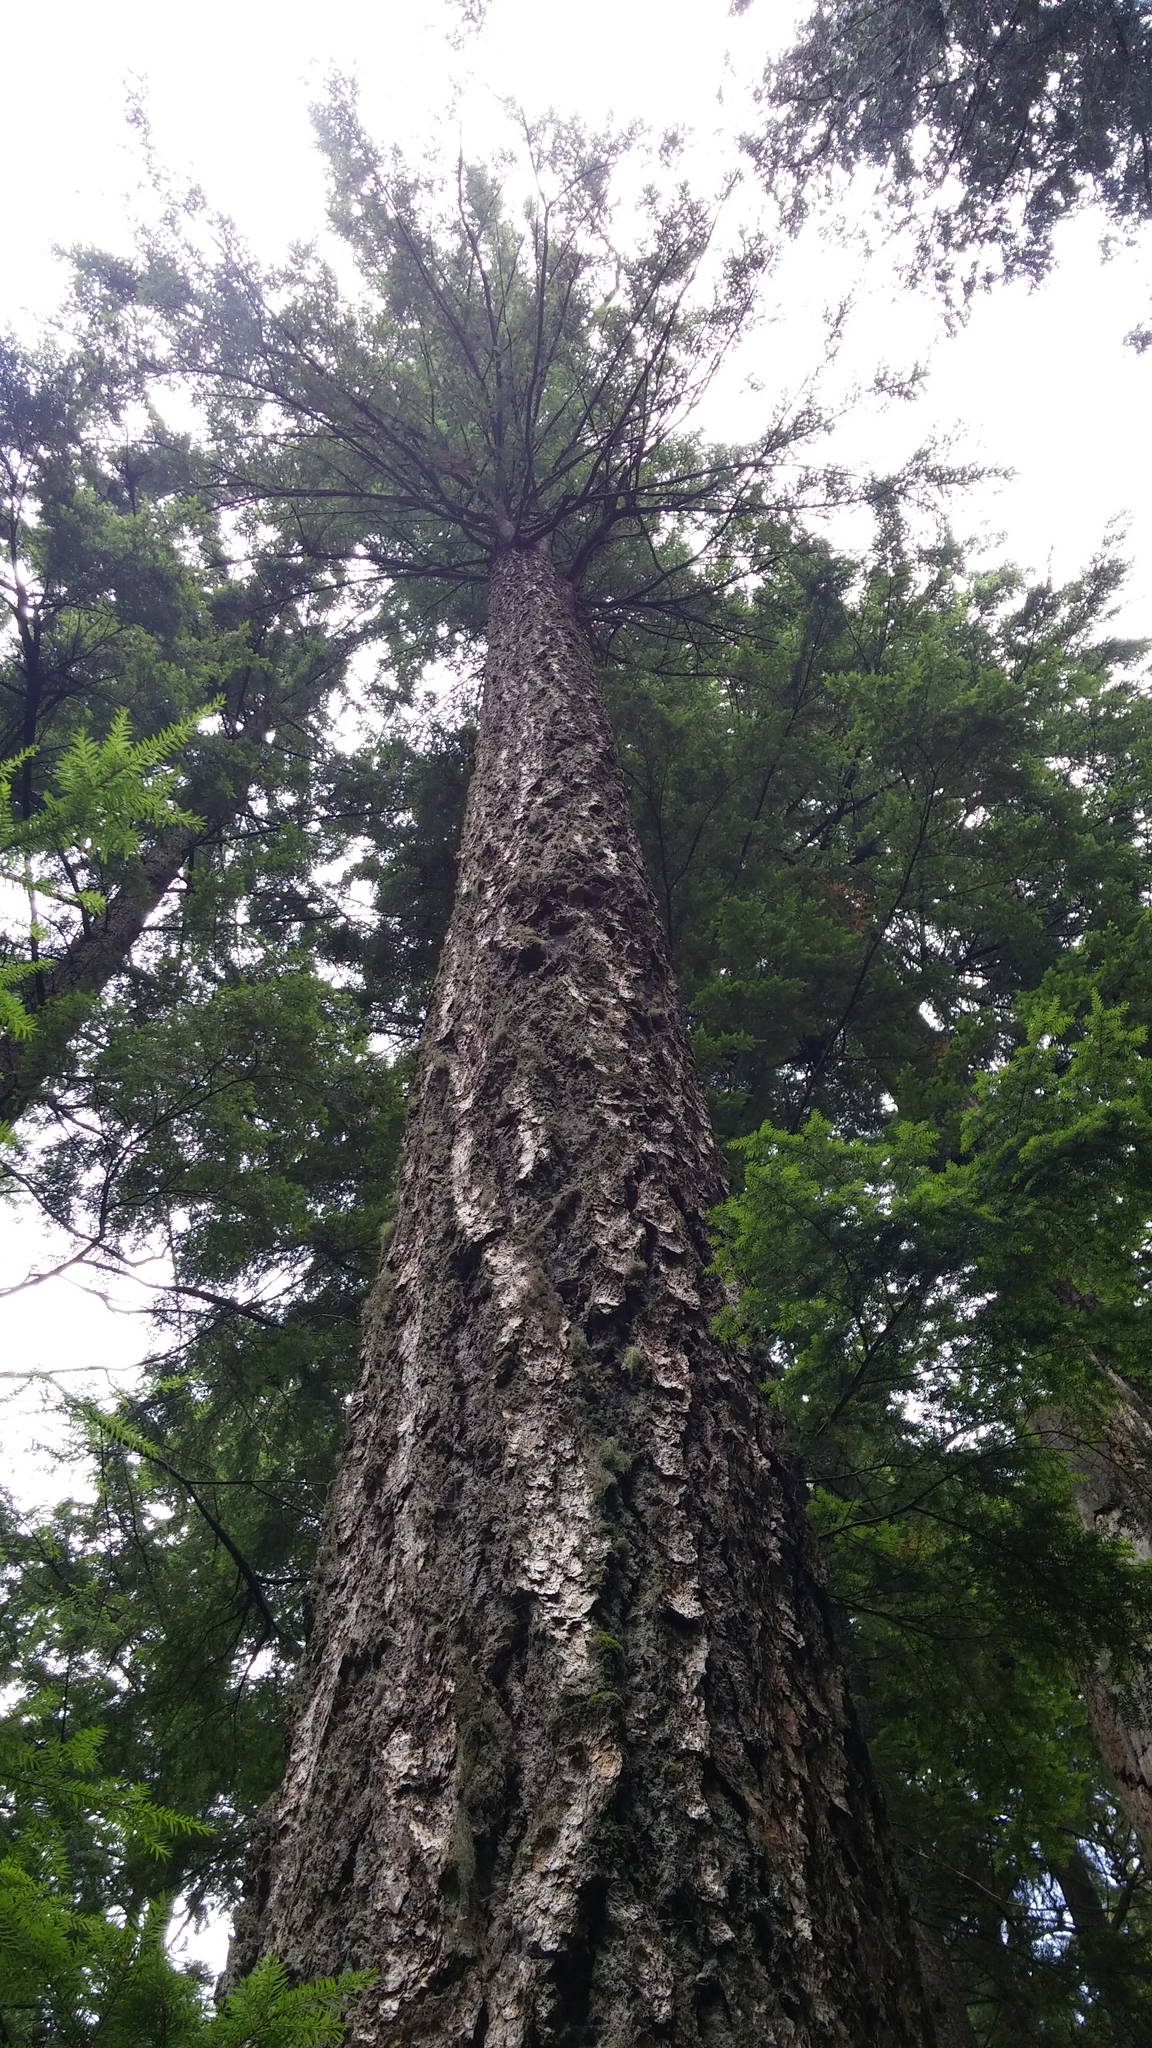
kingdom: Plantae
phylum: Tracheophyta
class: Pinopsida
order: Pinales
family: Pinaceae
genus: Pseudotsuga
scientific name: Pseudotsuga menziesii
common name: Douglas fir
